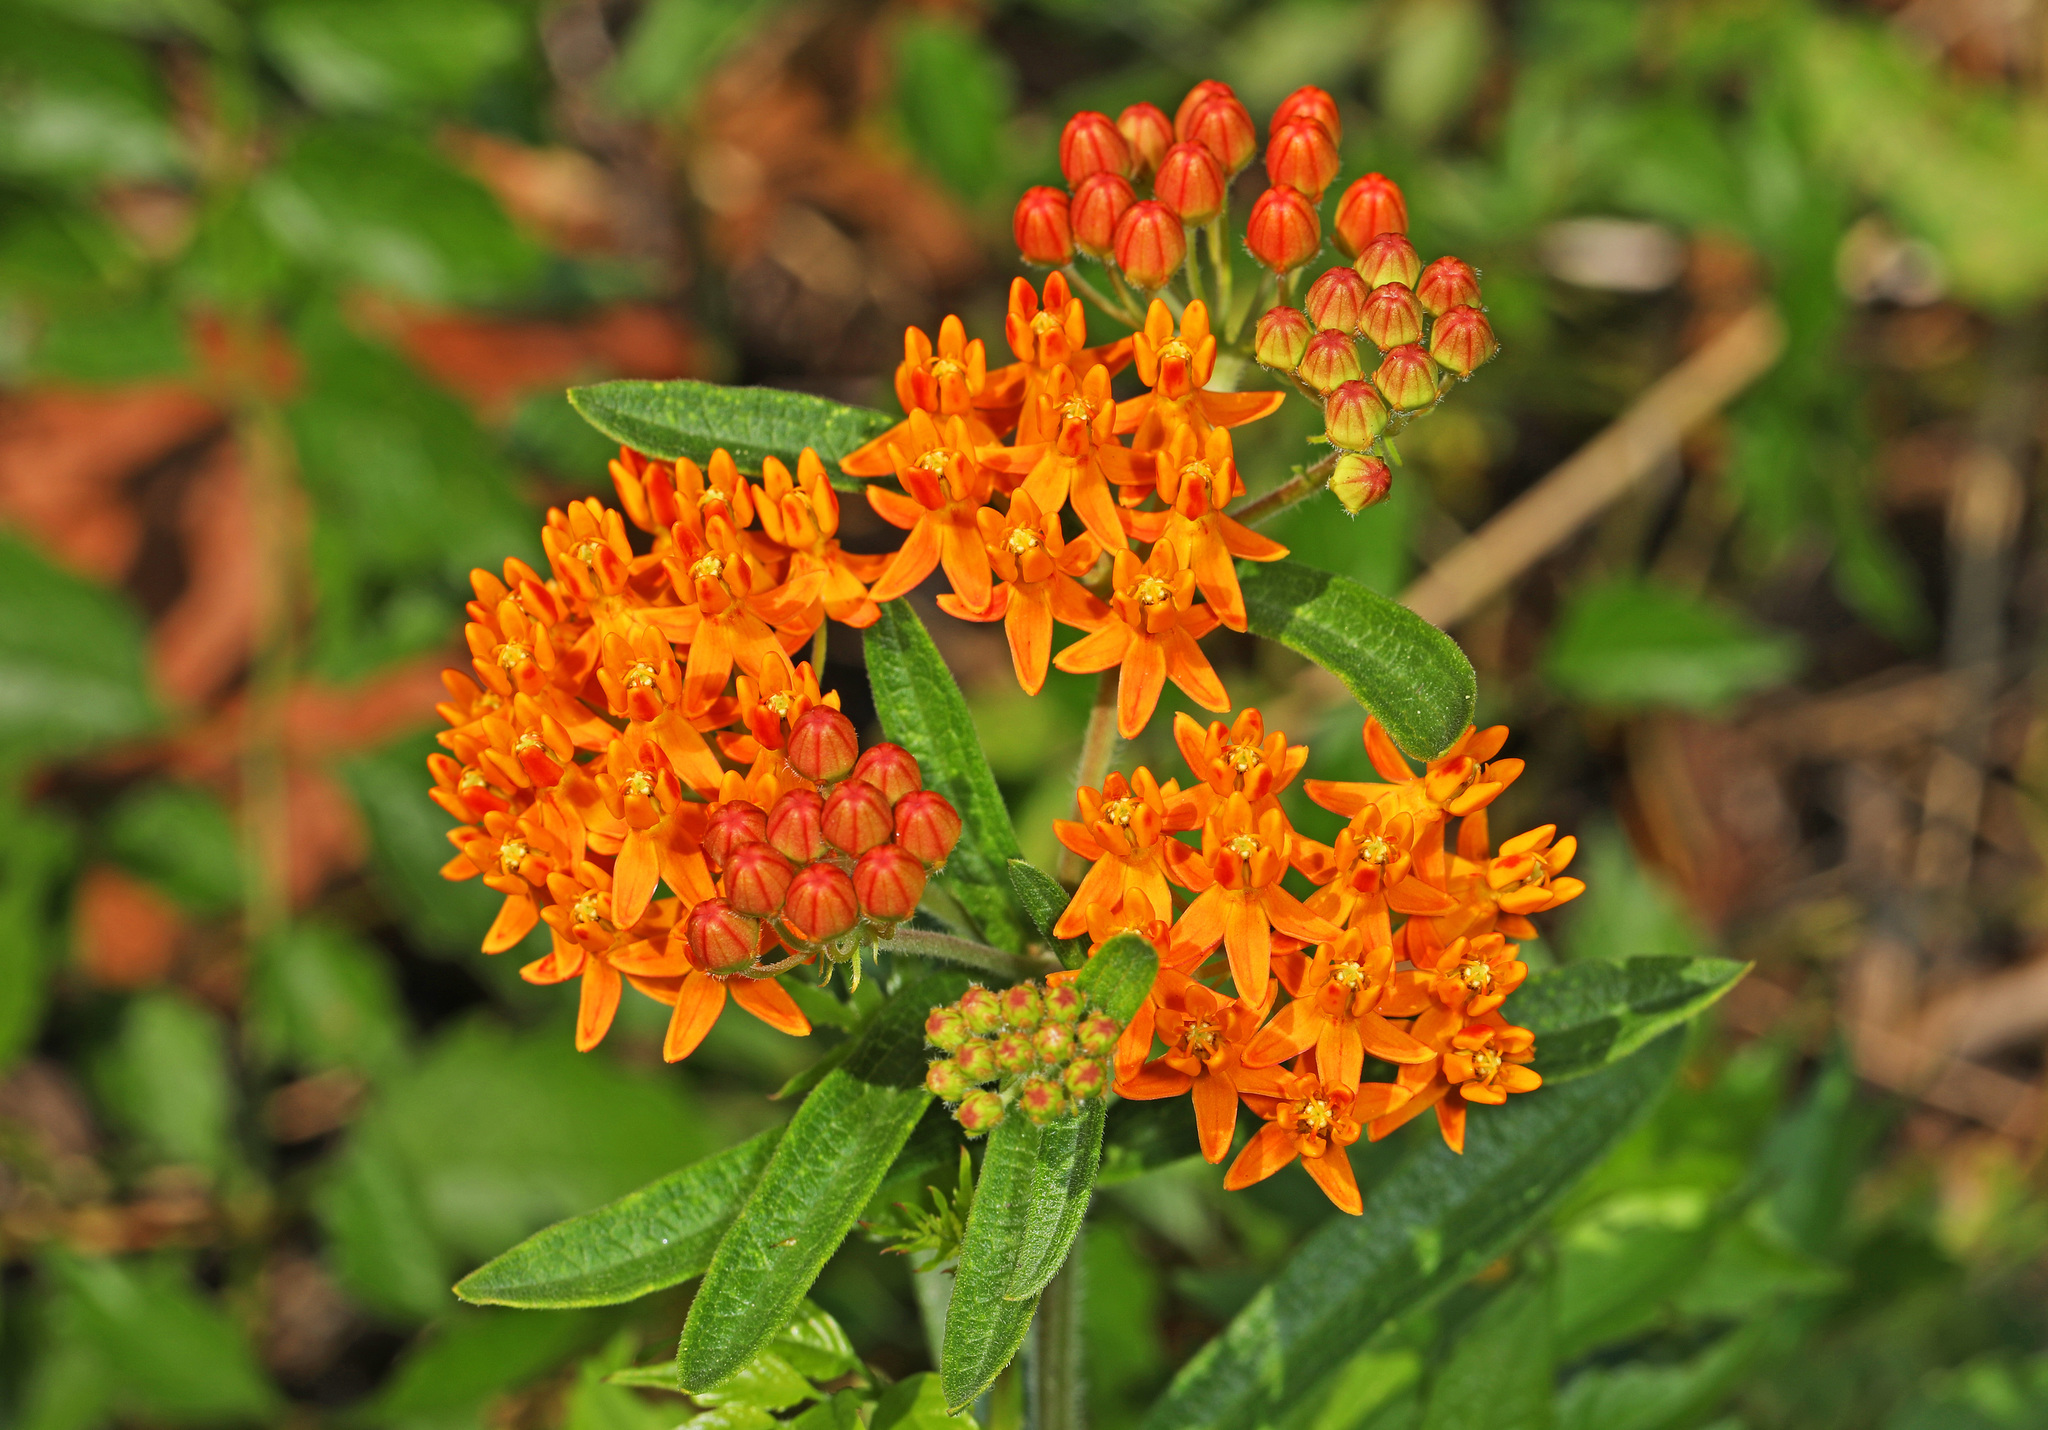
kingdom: Plantae
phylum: Tracheophyta
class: Magnoliopsida
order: Gentianales
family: Apocynaceae
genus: Asclepias
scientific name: Asclepias tuberosa
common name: Butterfly milkweed
